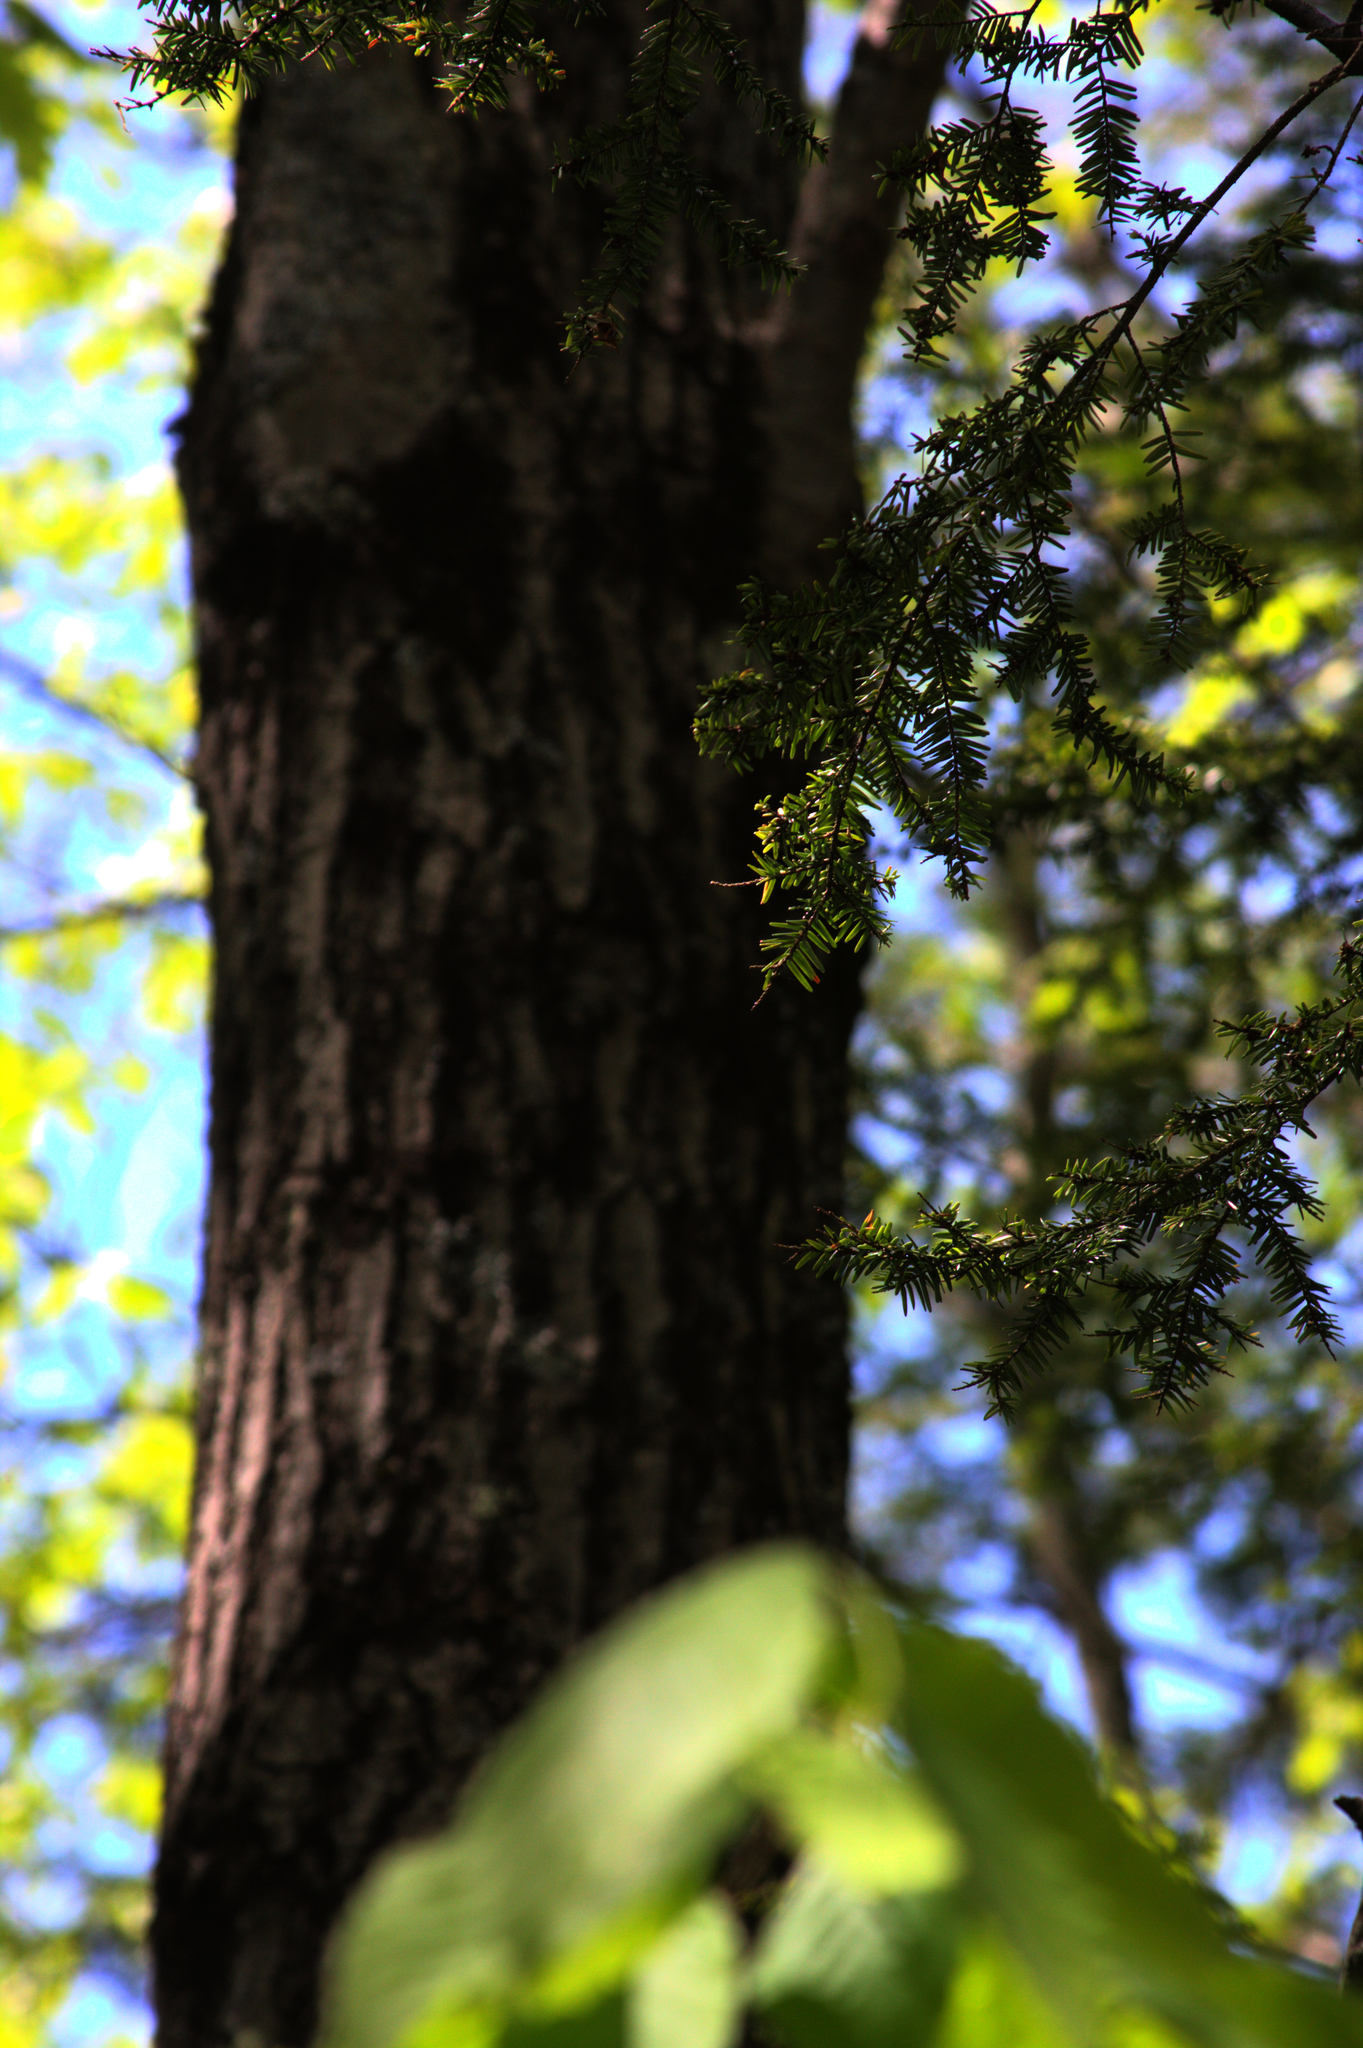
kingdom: Plantae
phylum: Tracheophyta
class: Pinopsida
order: Pinales
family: Pinaceae
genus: Tsuga
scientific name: Tsuga canadensis
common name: Eastern hemlock
